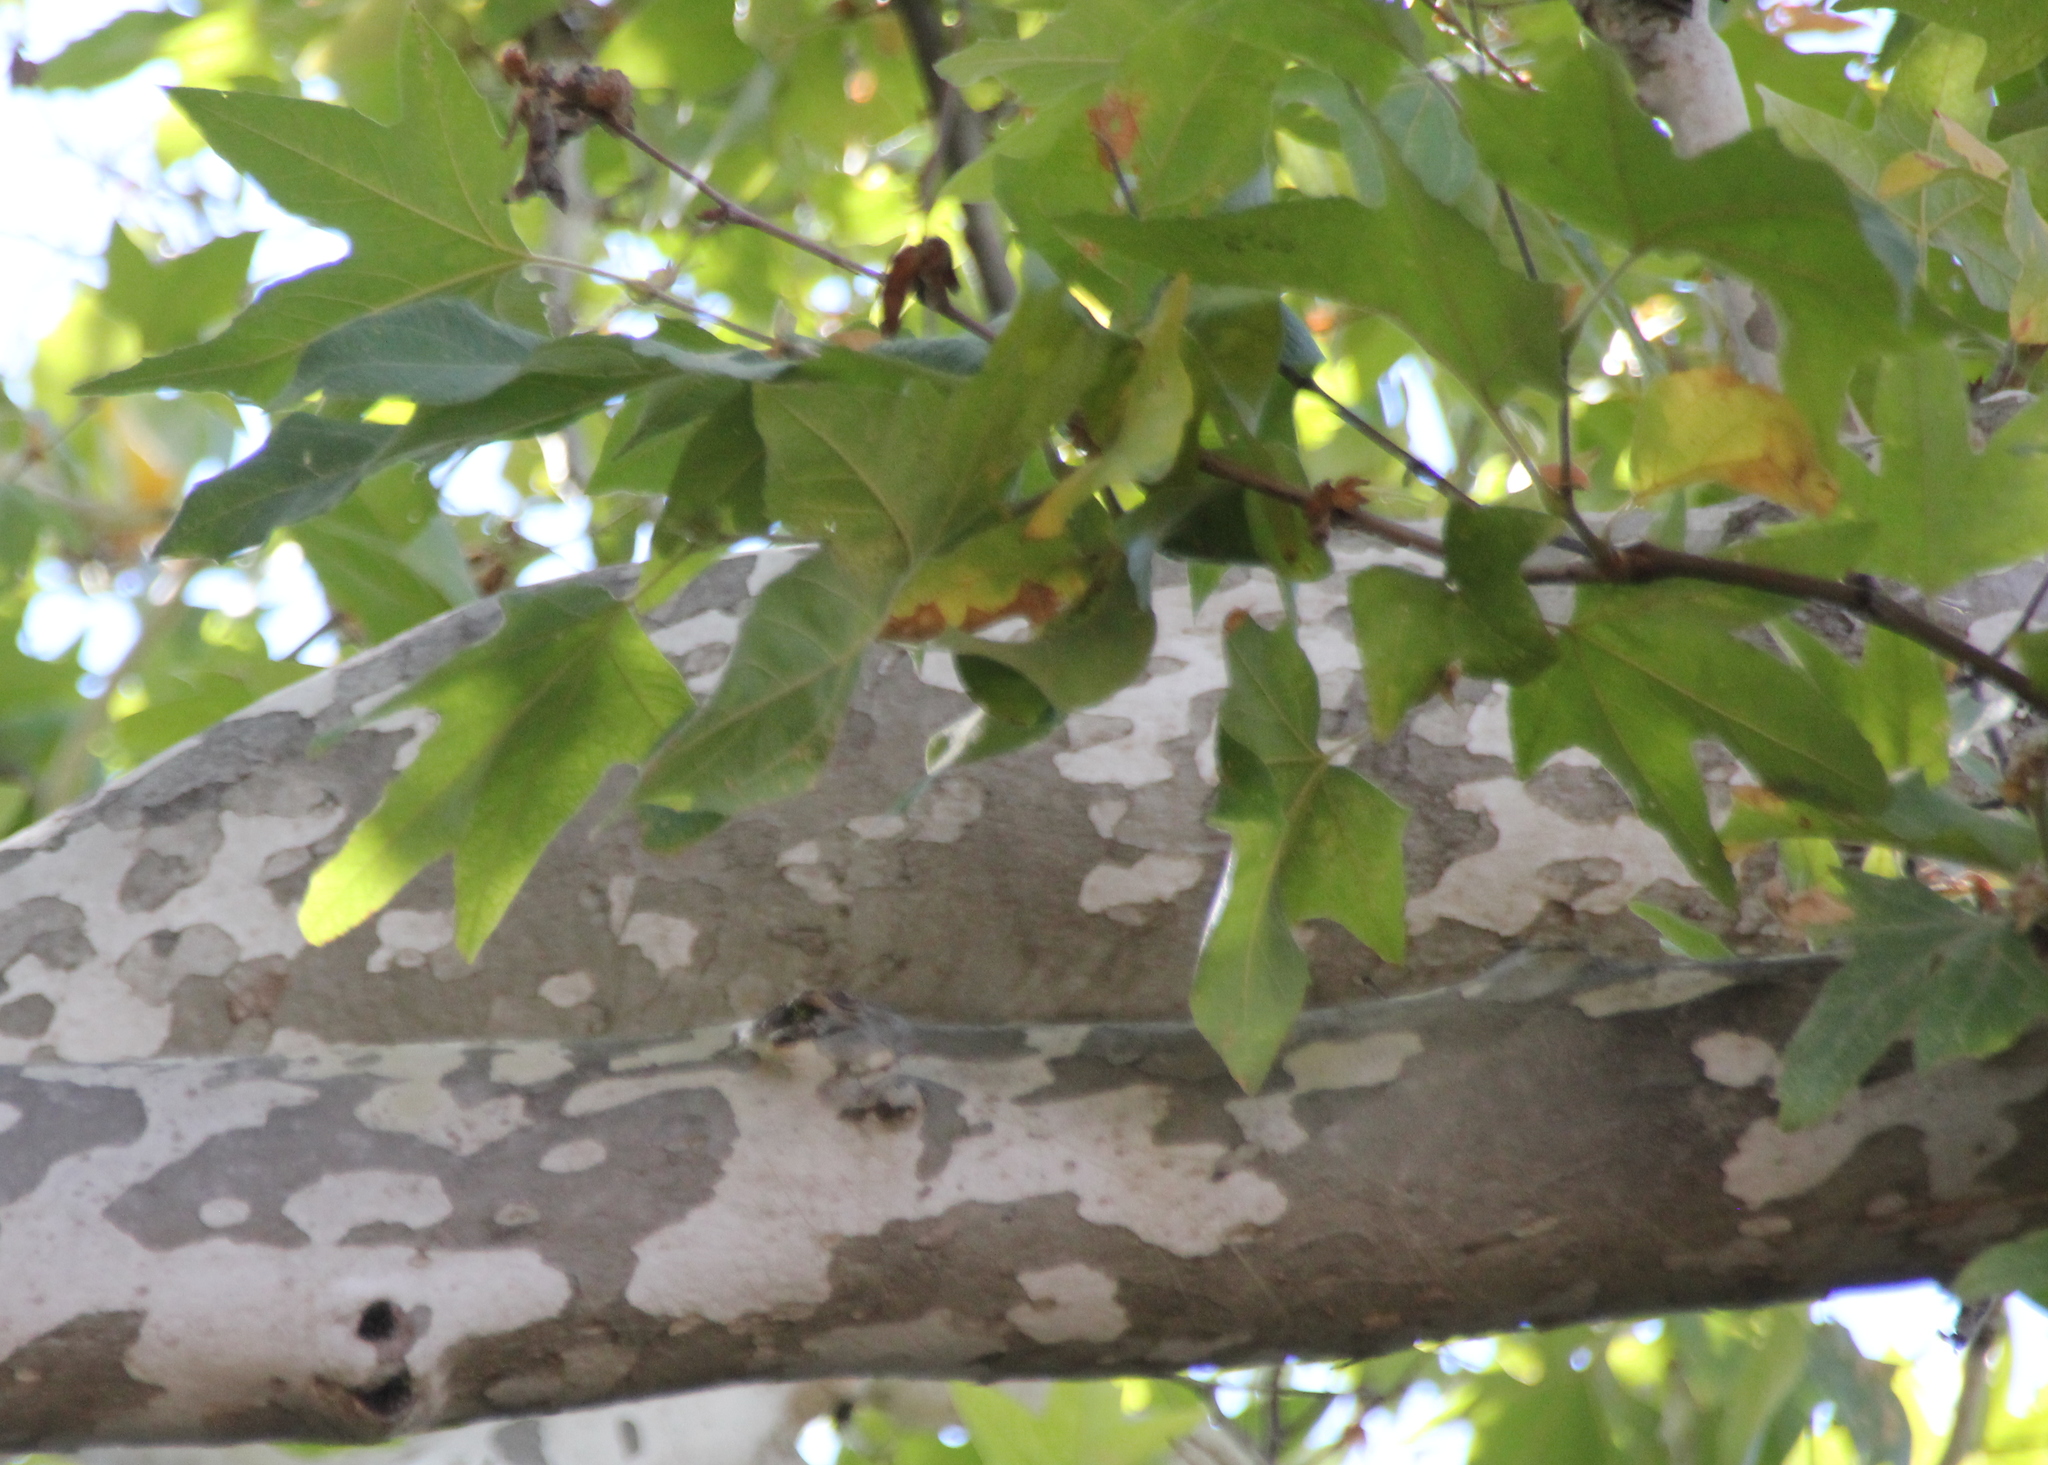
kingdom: Plantae
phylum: Tracheophyta
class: Magnoliopsida
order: Proteales
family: Platanaceae
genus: Platanus
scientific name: Platanus racemosa
